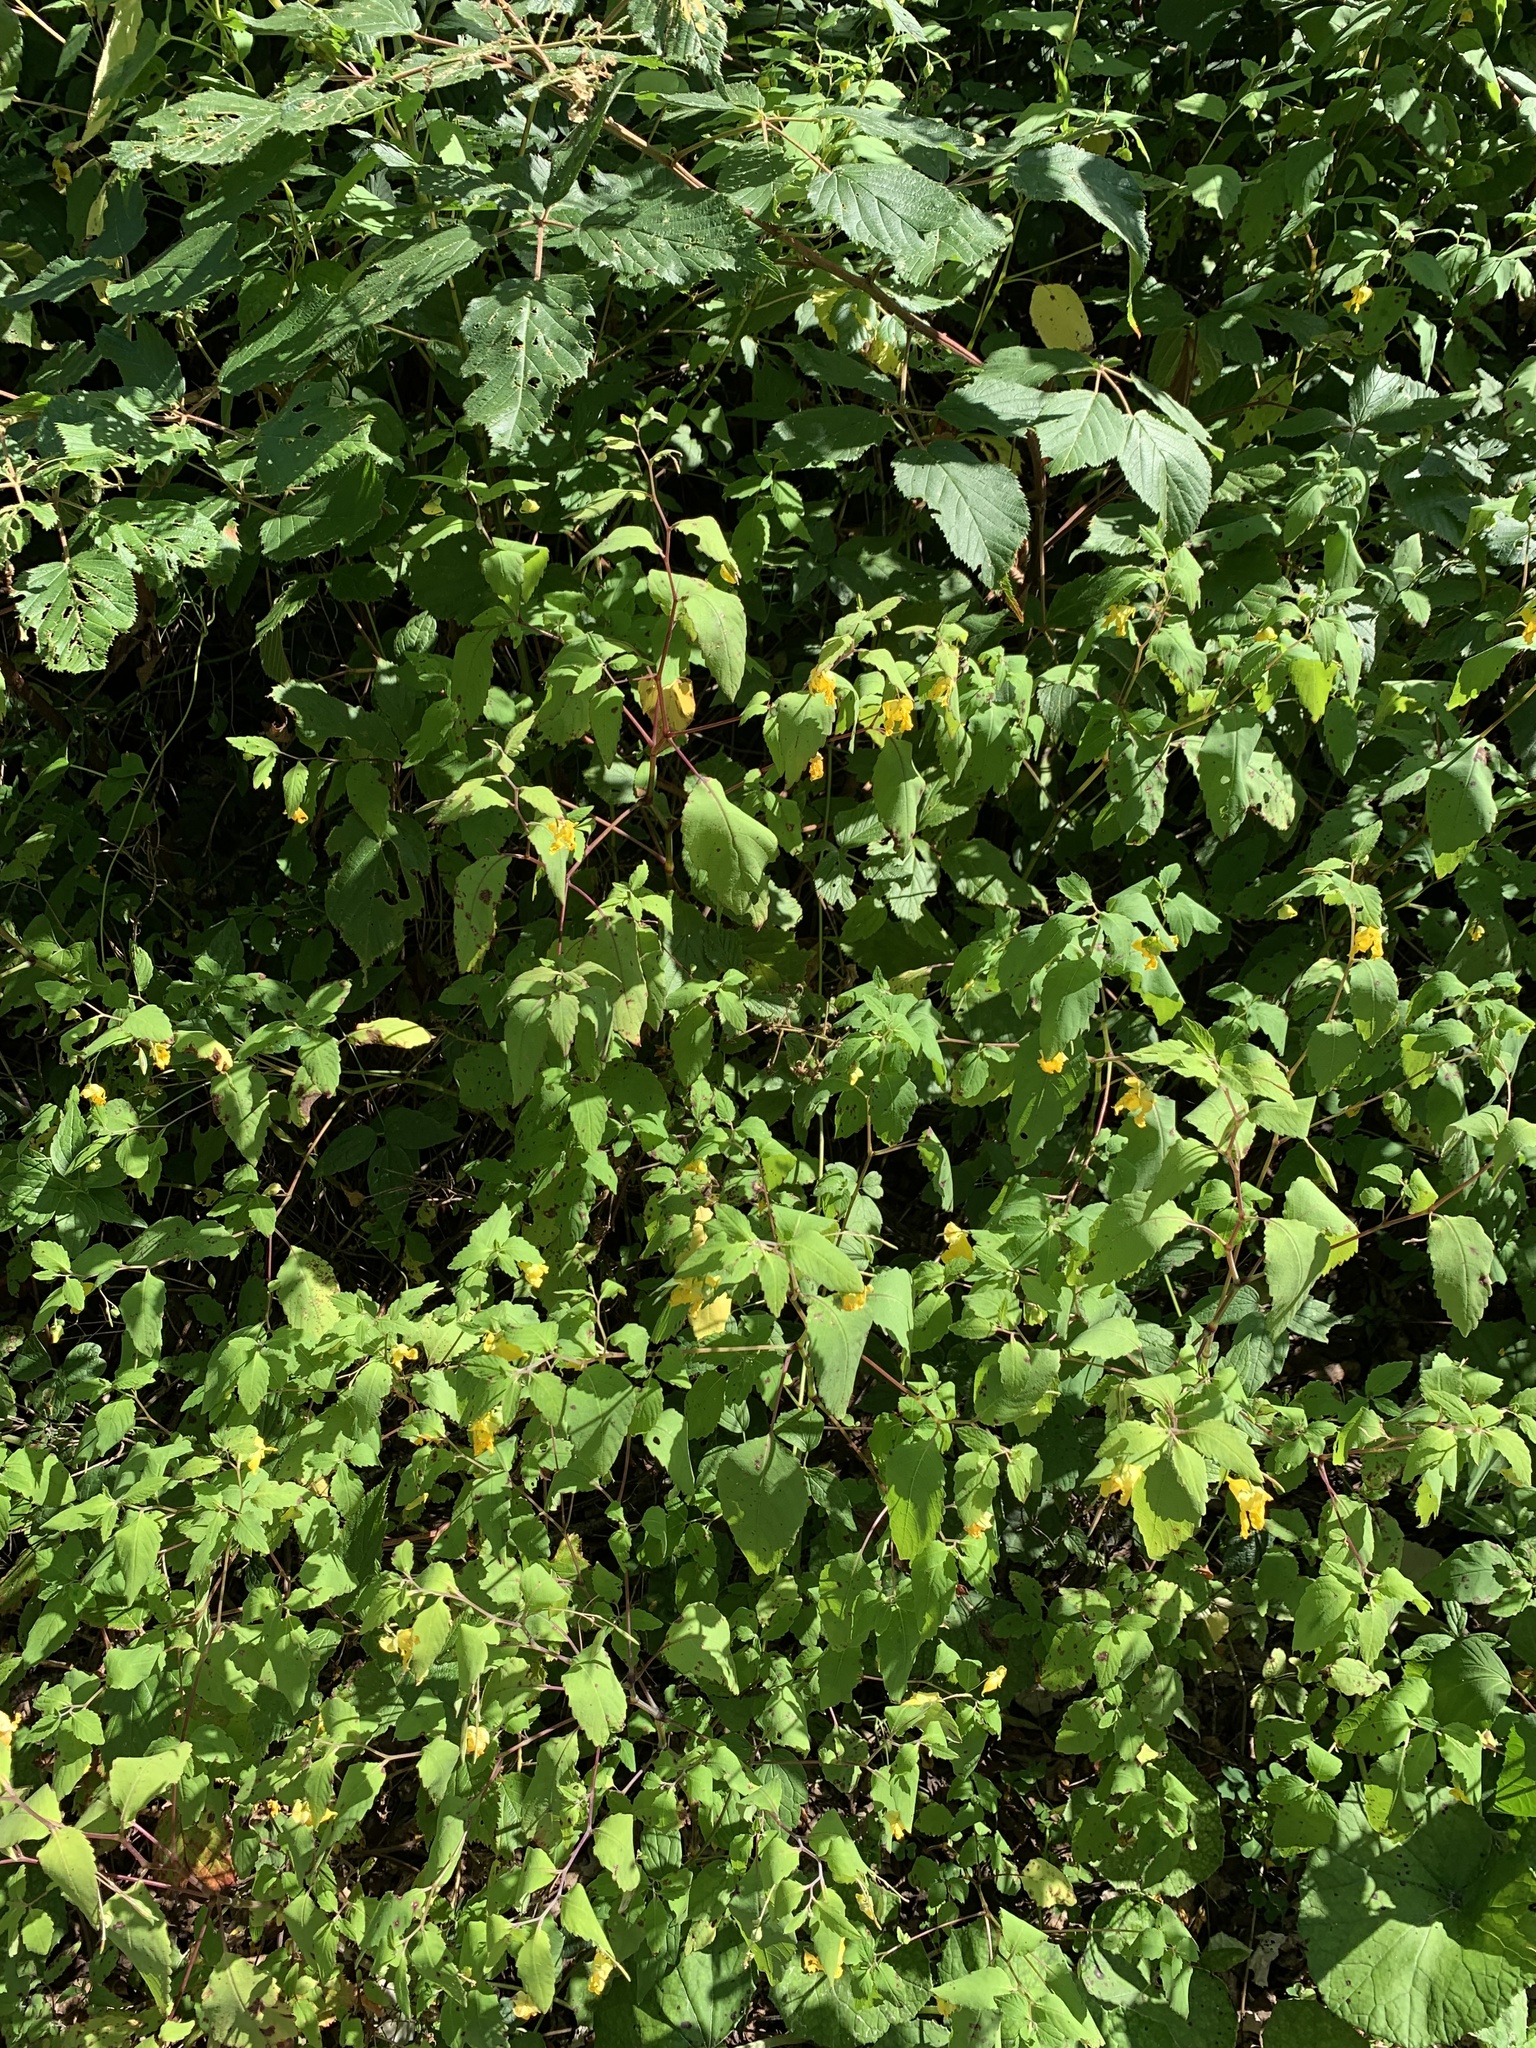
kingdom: Plantae
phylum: Tracheophyta
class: Magnoliopsida
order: Ericales
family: Balsaminaceae
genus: Impatiens
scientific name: Impatiens pallida
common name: Pale snapweed
